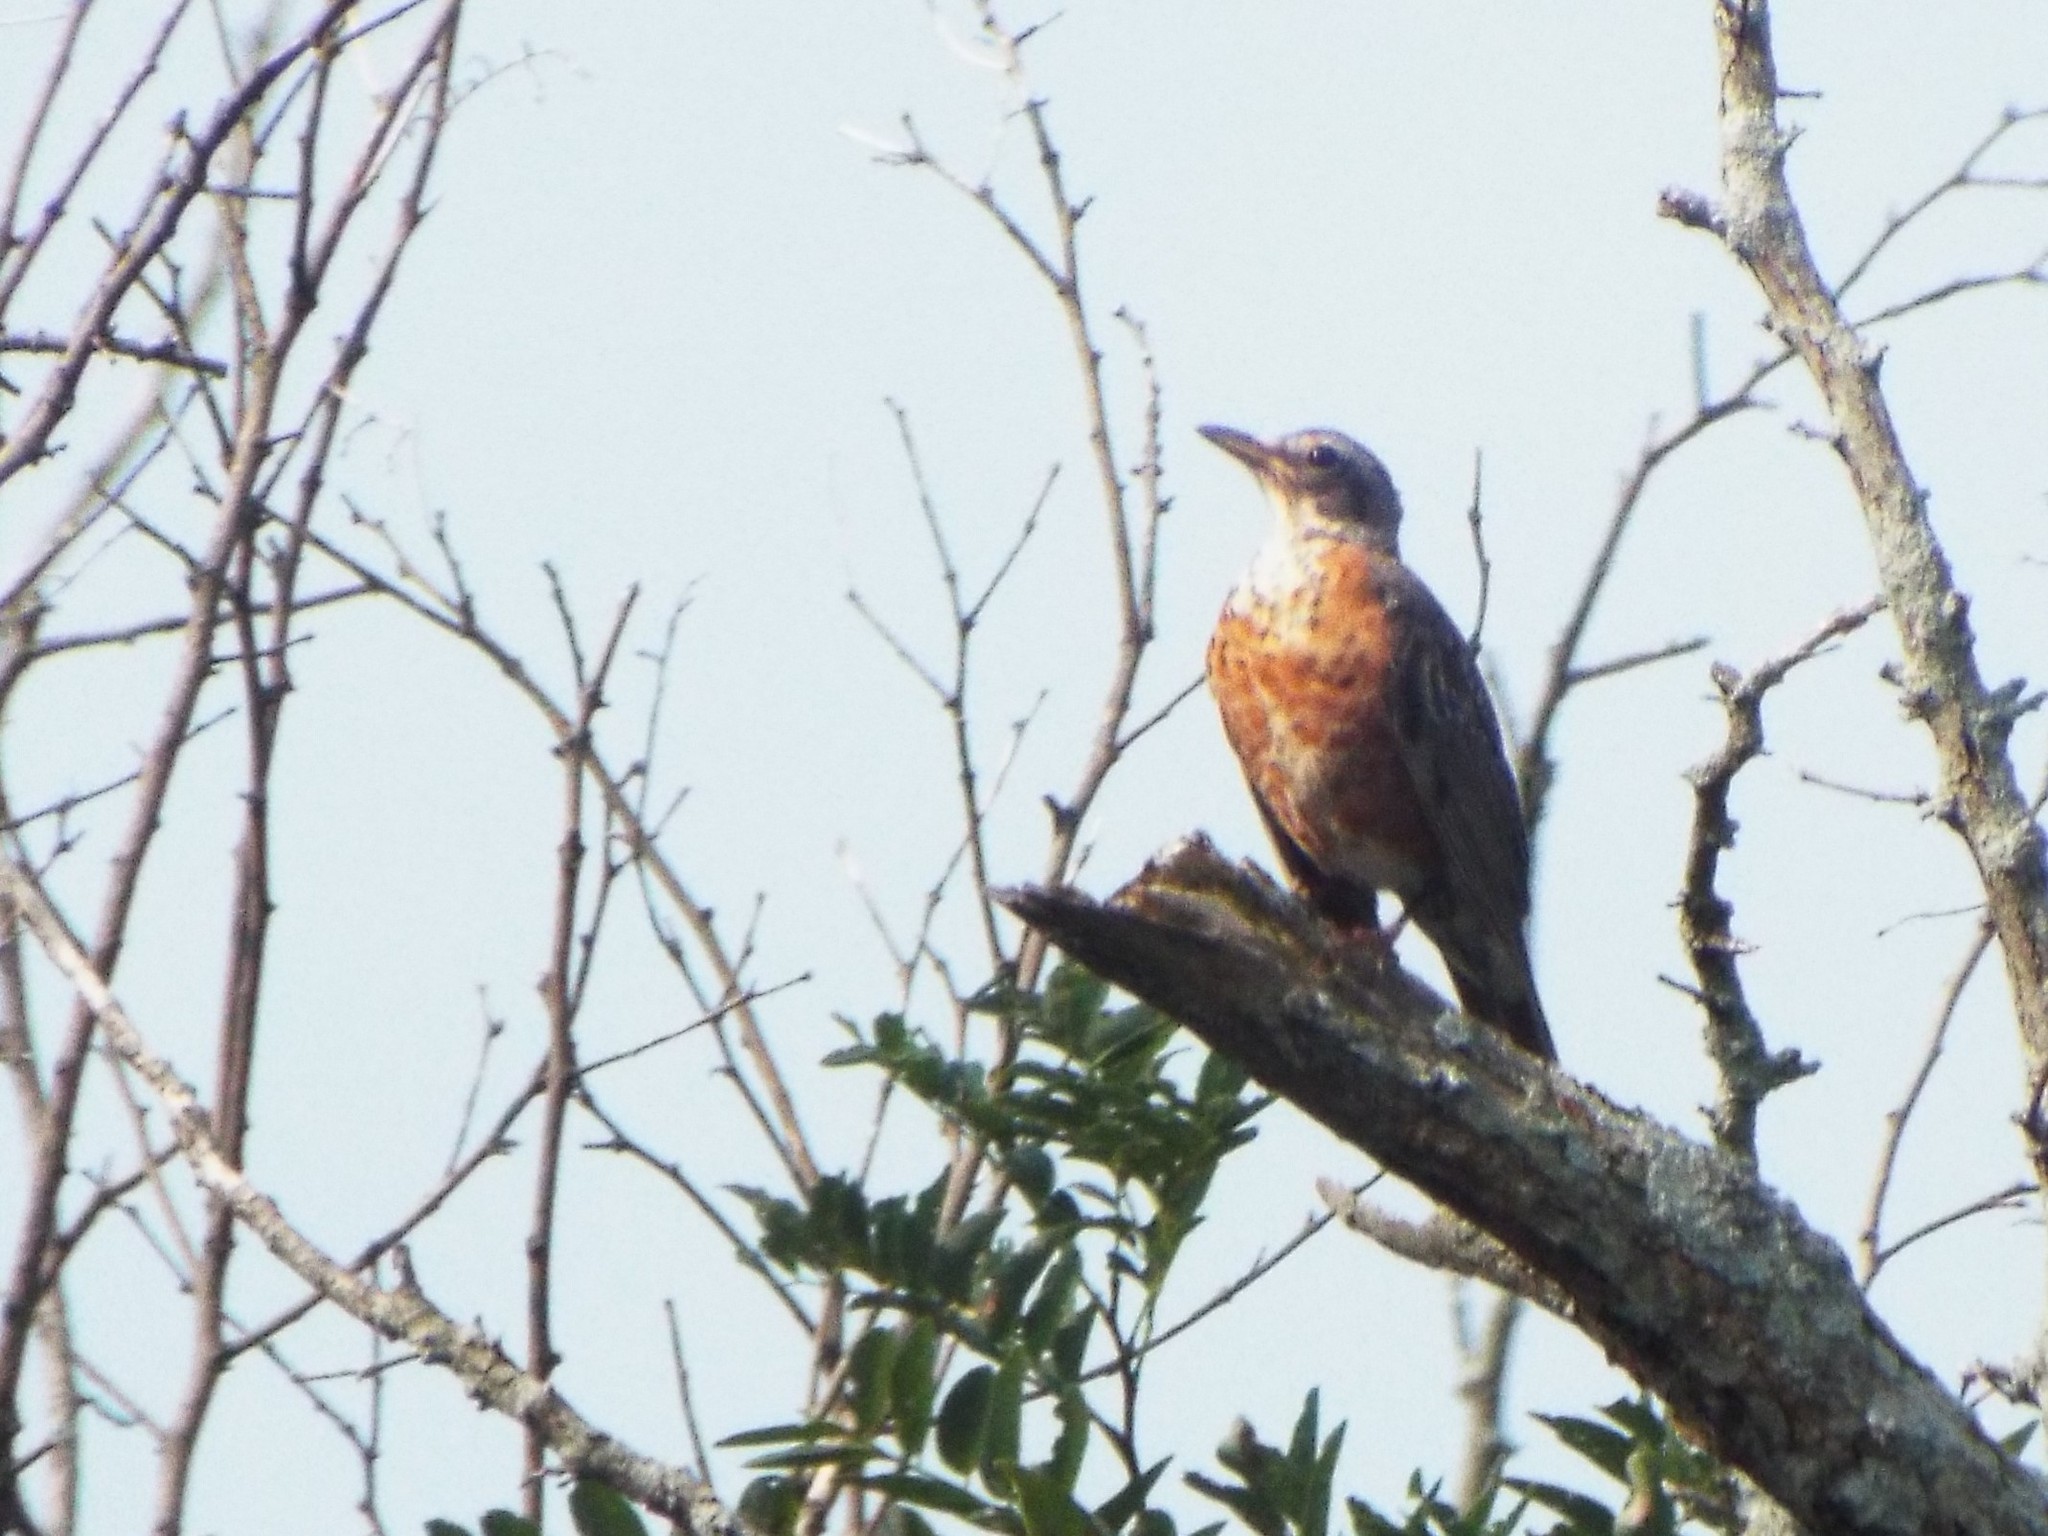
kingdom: Animalia
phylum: Chordata
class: Aves
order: Passeriformes
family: Turdidae
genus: Turdus
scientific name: Turdus migratorius
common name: American robin
